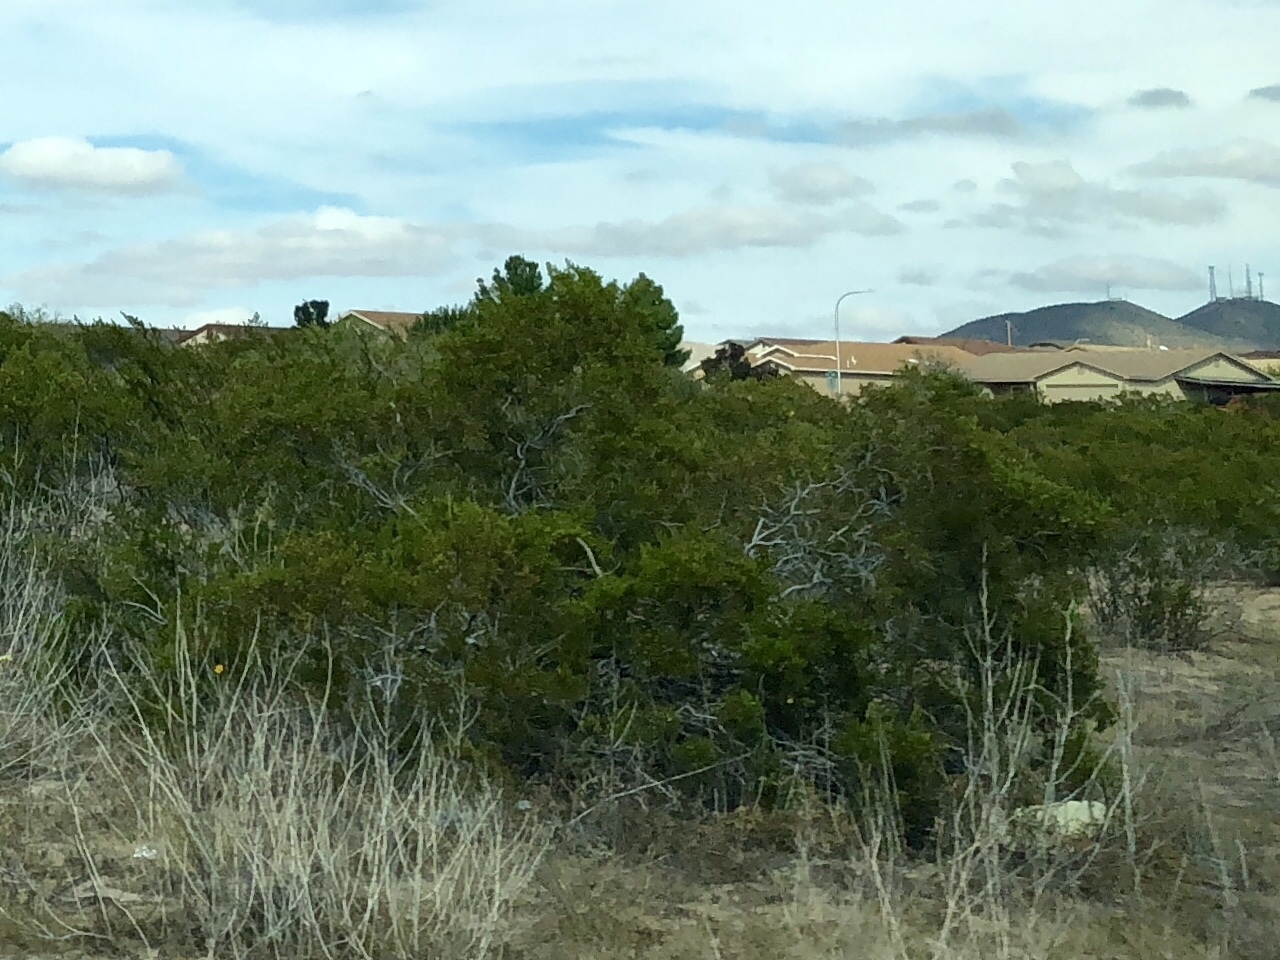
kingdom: Plantae
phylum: Tracheophyta
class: Magnoliopsida
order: Zygophyllales
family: Zygophyllaceae
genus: Larrea
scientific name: Larrea tridentata
